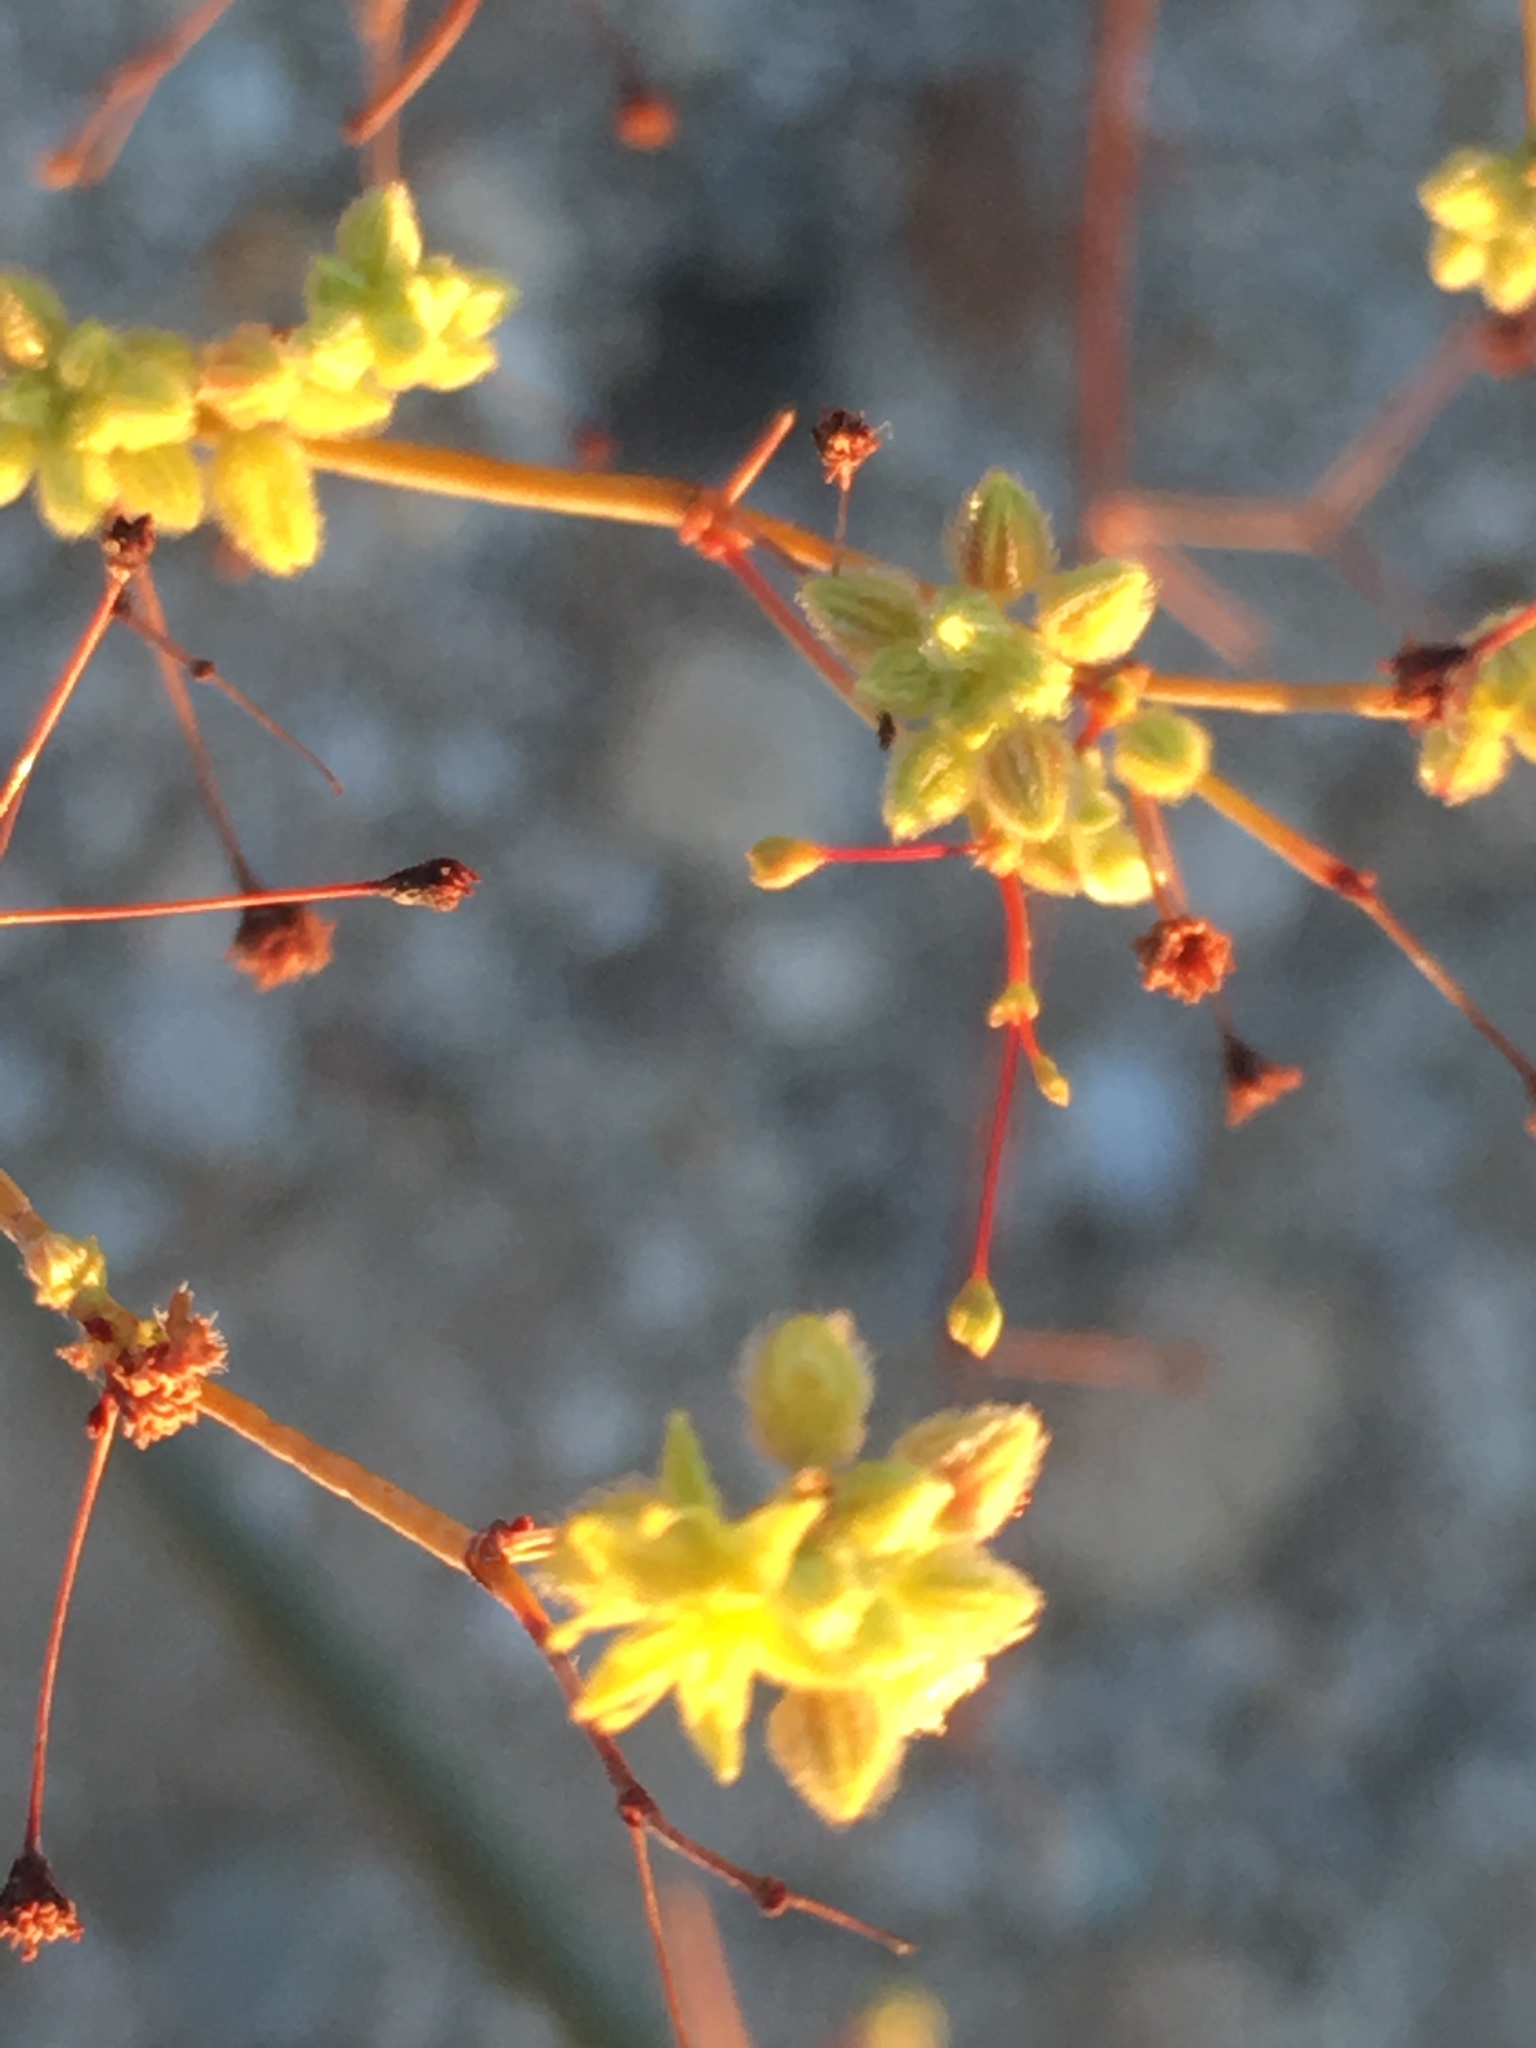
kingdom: Plantae
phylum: Tracheophyta
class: Magnoliopsida
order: Caryophyllales
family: Polygonaceae
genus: Eriogonum
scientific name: Eriogonum inflatum
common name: Desert trumpet
